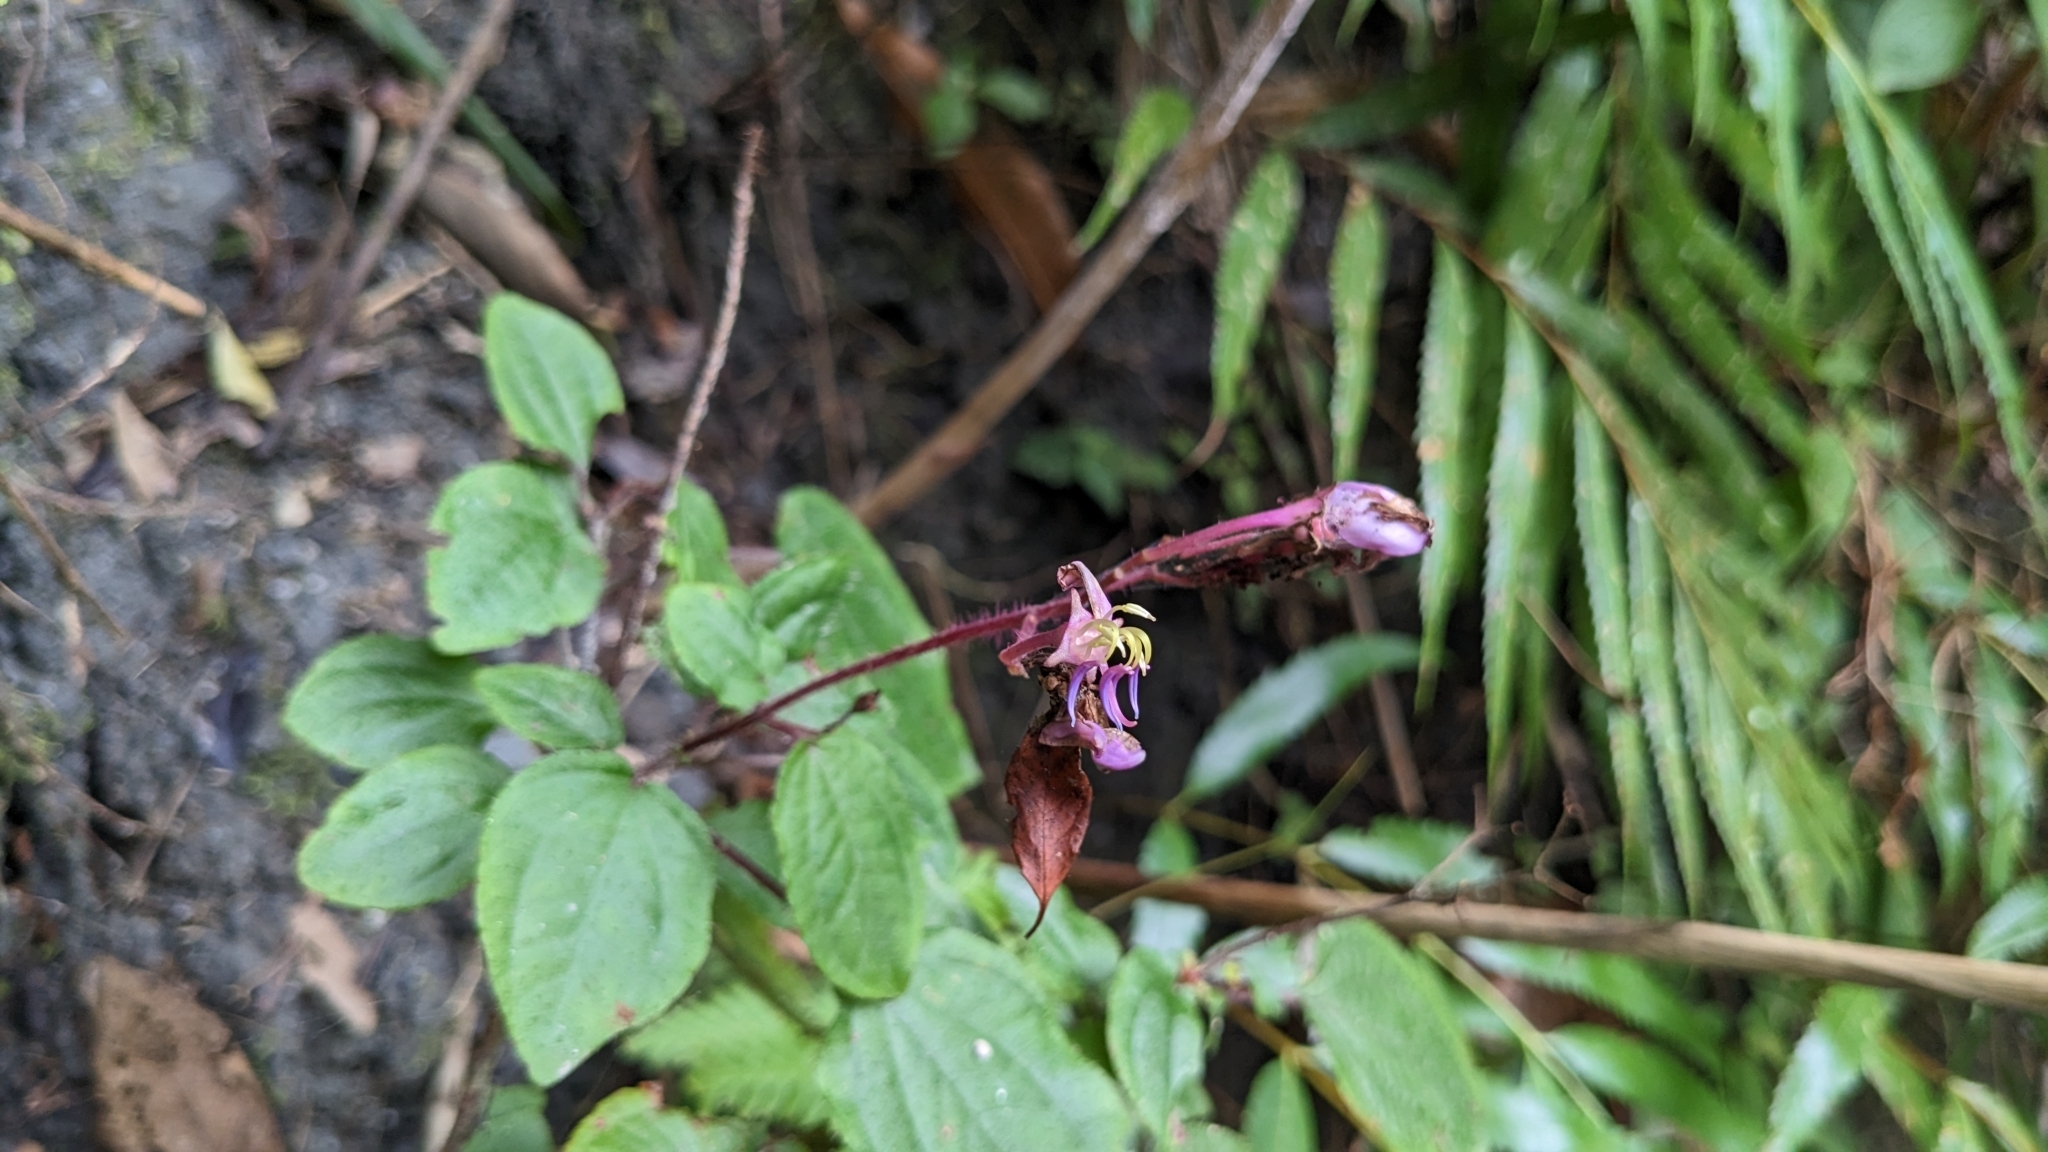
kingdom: Plantae
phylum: Tracheophyta
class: Magnoliopsida
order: Myrtales
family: Melastomataceae
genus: Bredia
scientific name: Bredia dulanica
